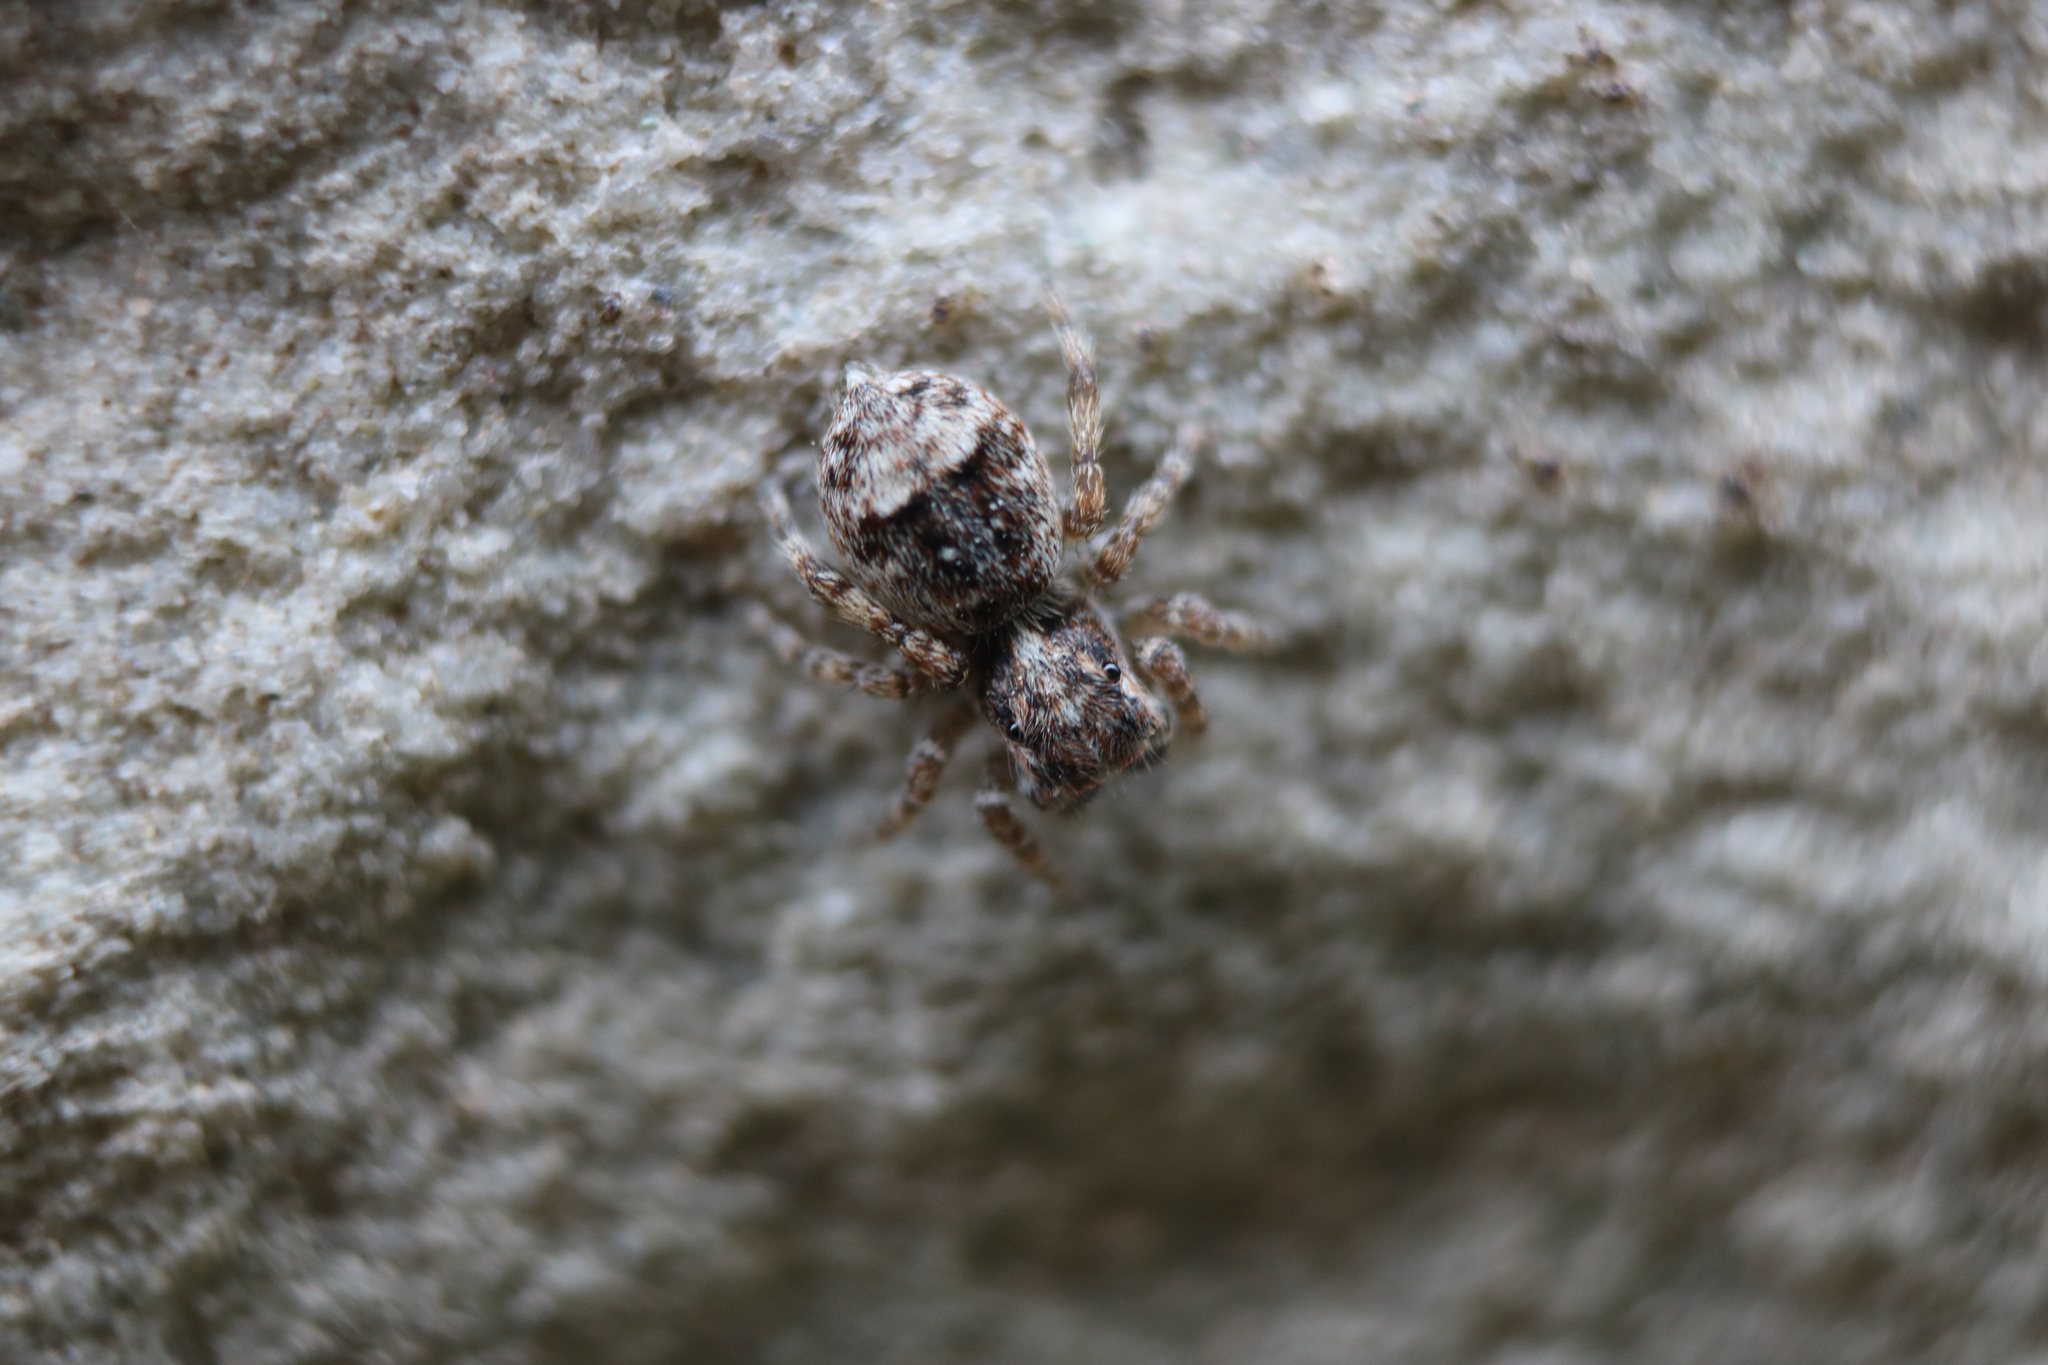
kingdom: Animalia
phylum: Arthropoda
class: Arachnida
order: Araneae
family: Salticidae
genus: Attulus
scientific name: Attulus fasciger
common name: Asiatic wall jumping spider
